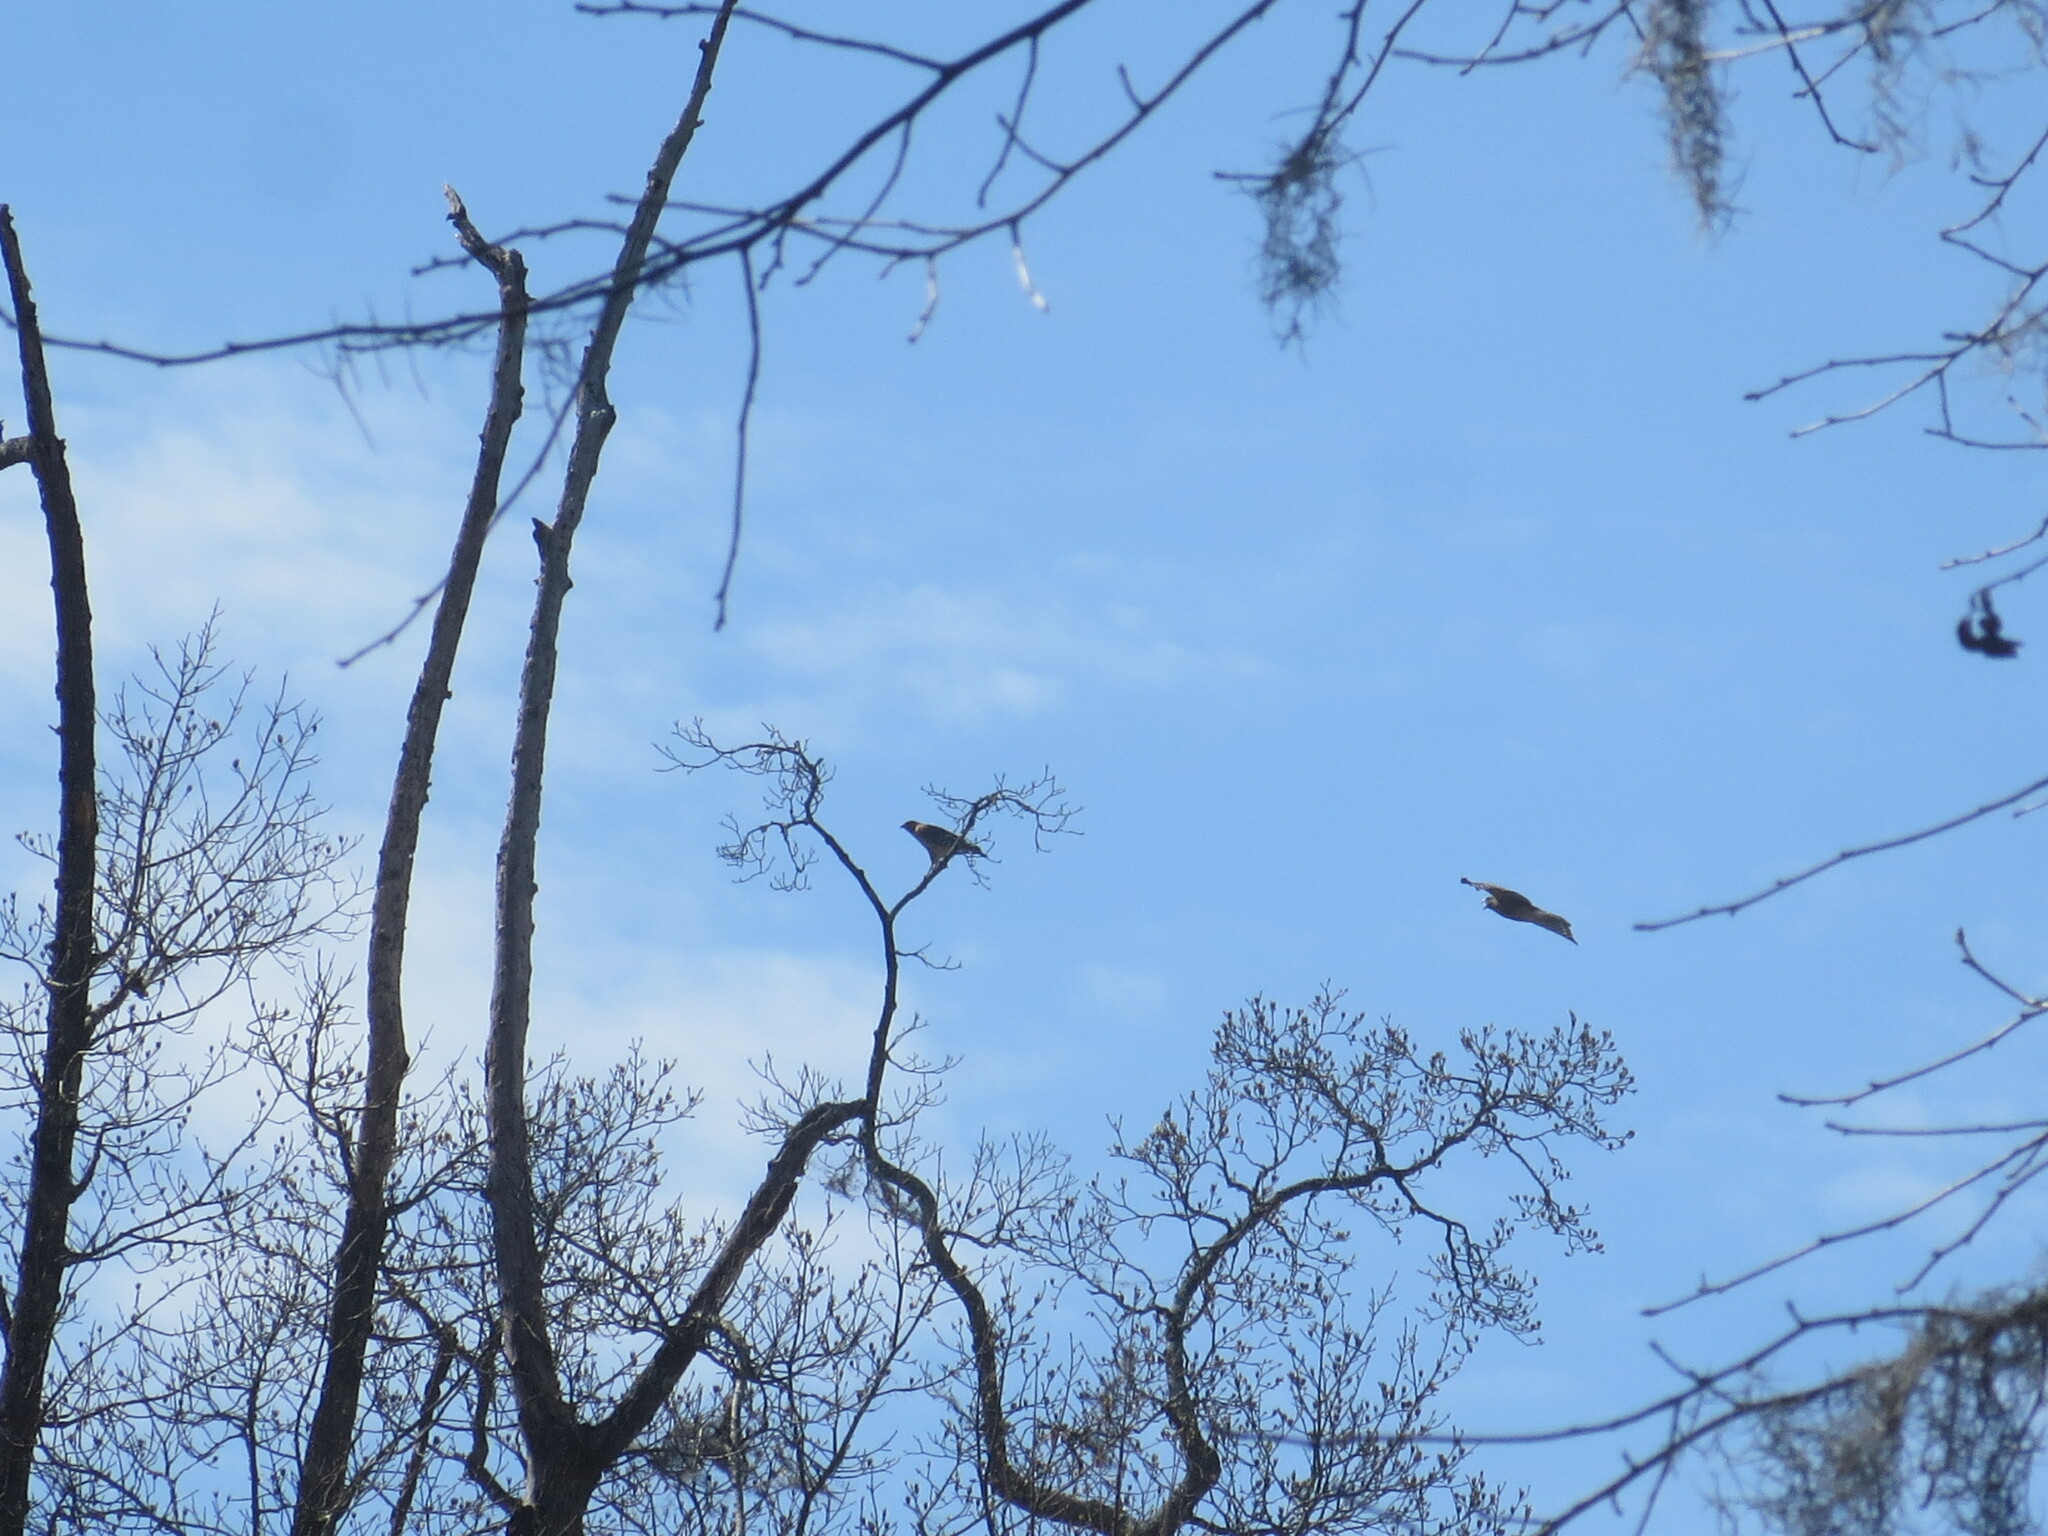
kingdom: Animalia
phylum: Chordata
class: Aves
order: Accipitriformes
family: Accipitridae
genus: Buteo
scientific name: Buteo lineatus
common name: Red-shouldered hawk
